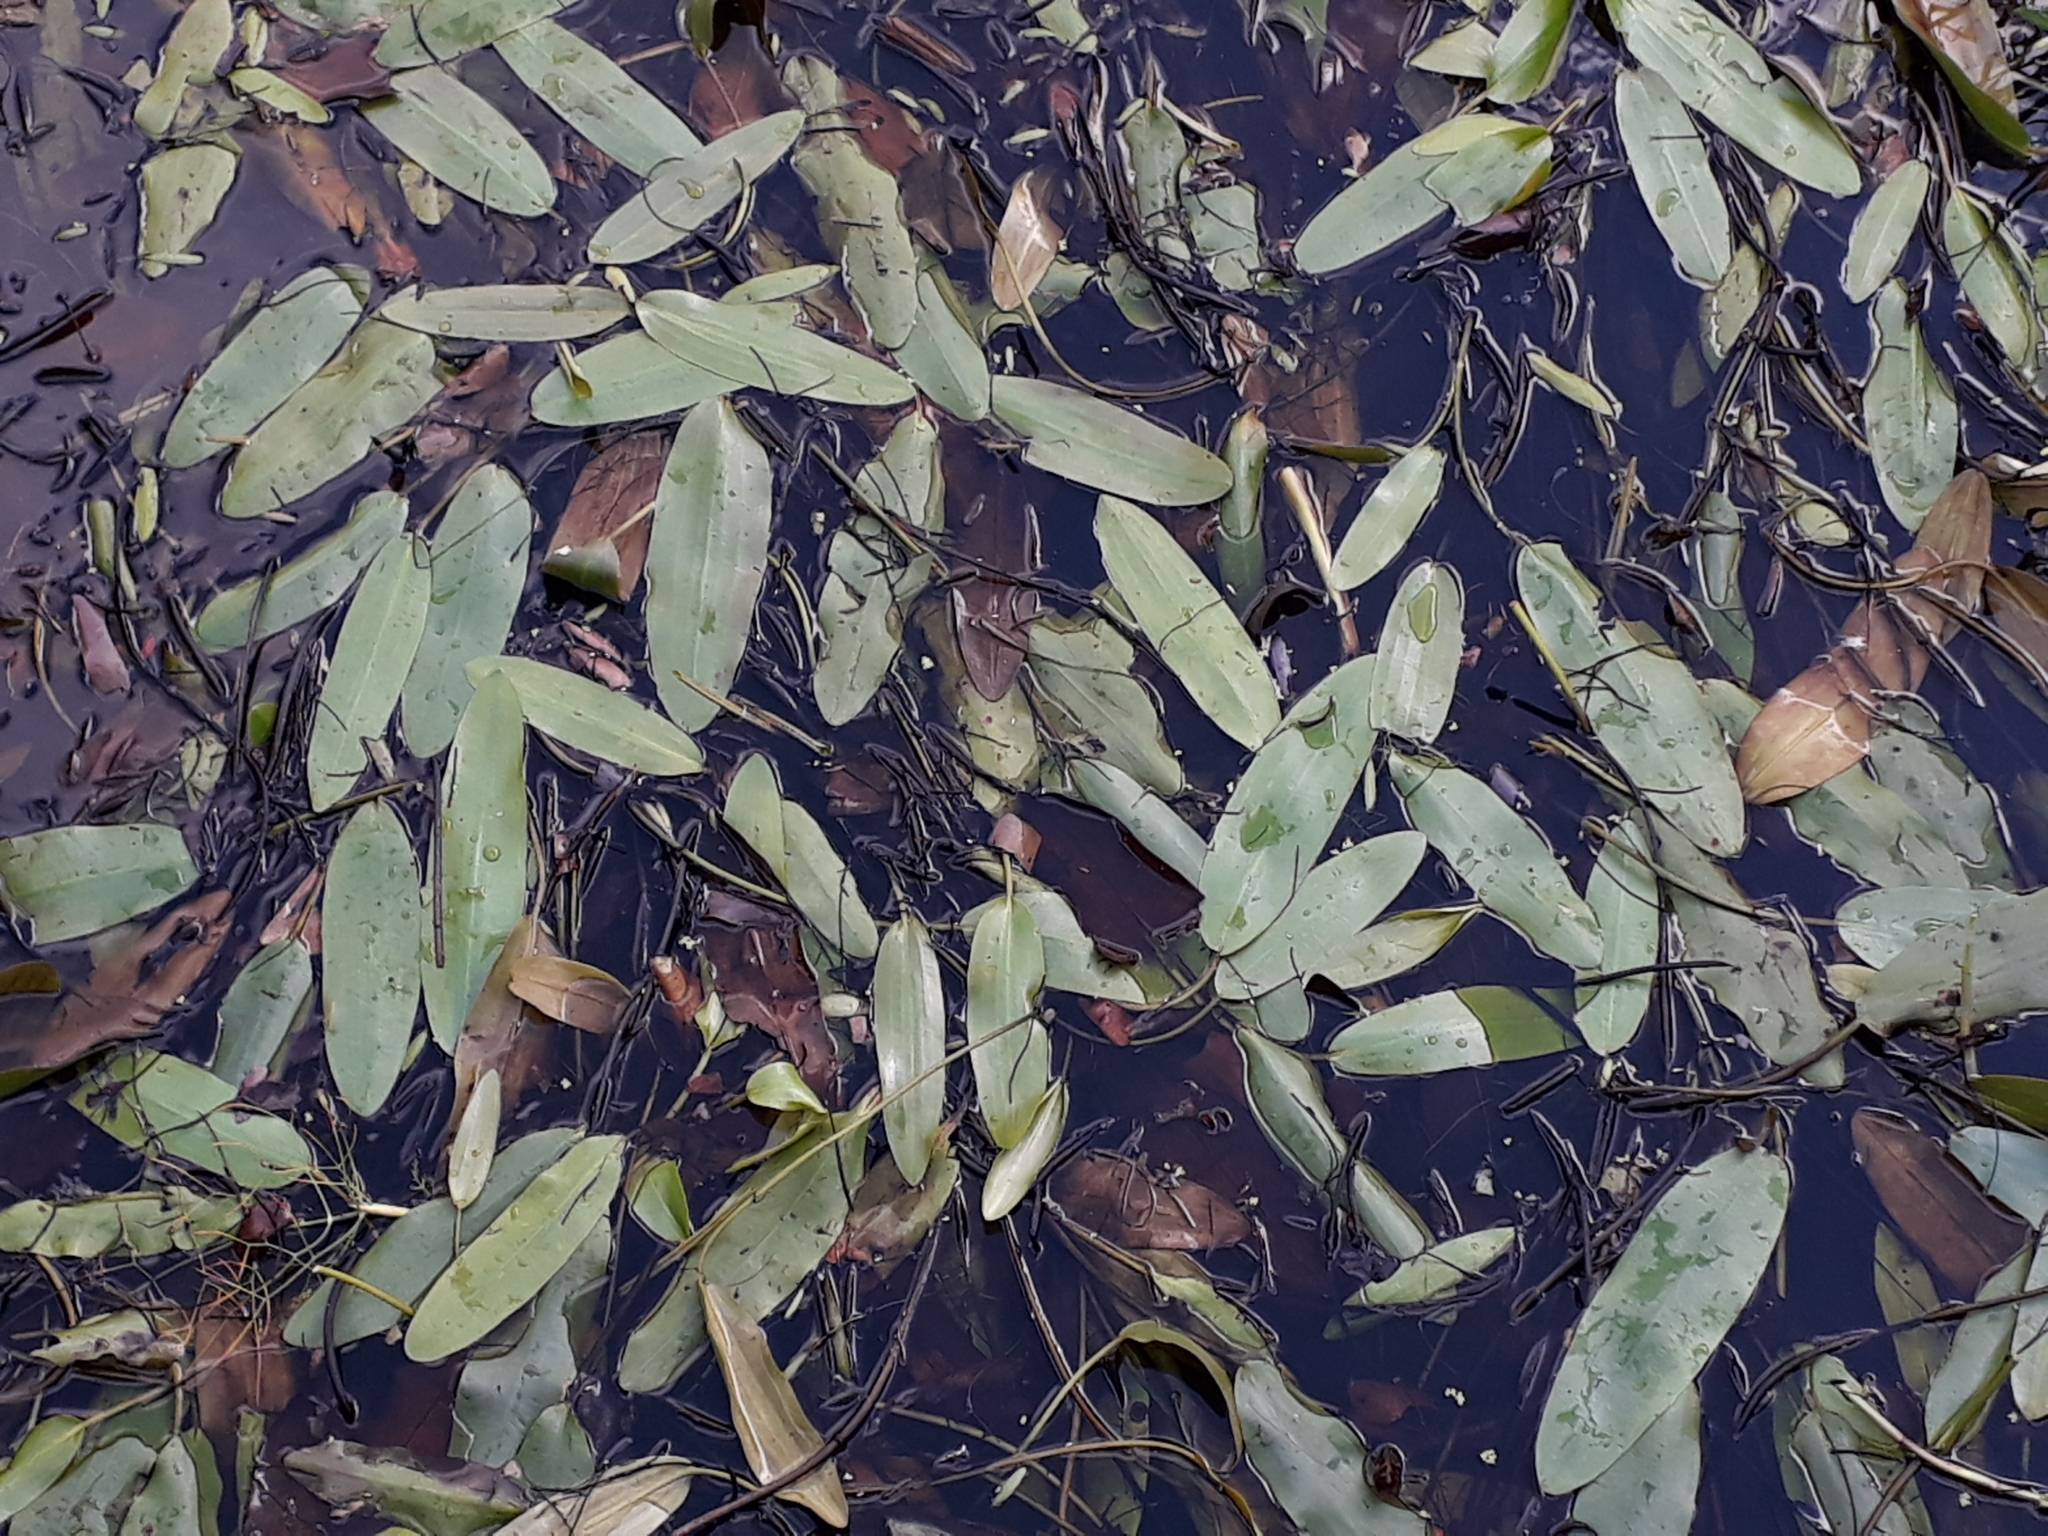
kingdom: Plantae
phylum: Tracheophyta
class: Liliopsida
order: Alismatales
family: Potamogetonaceae
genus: Potamogeton
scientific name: Potamogeton cheesemanii
